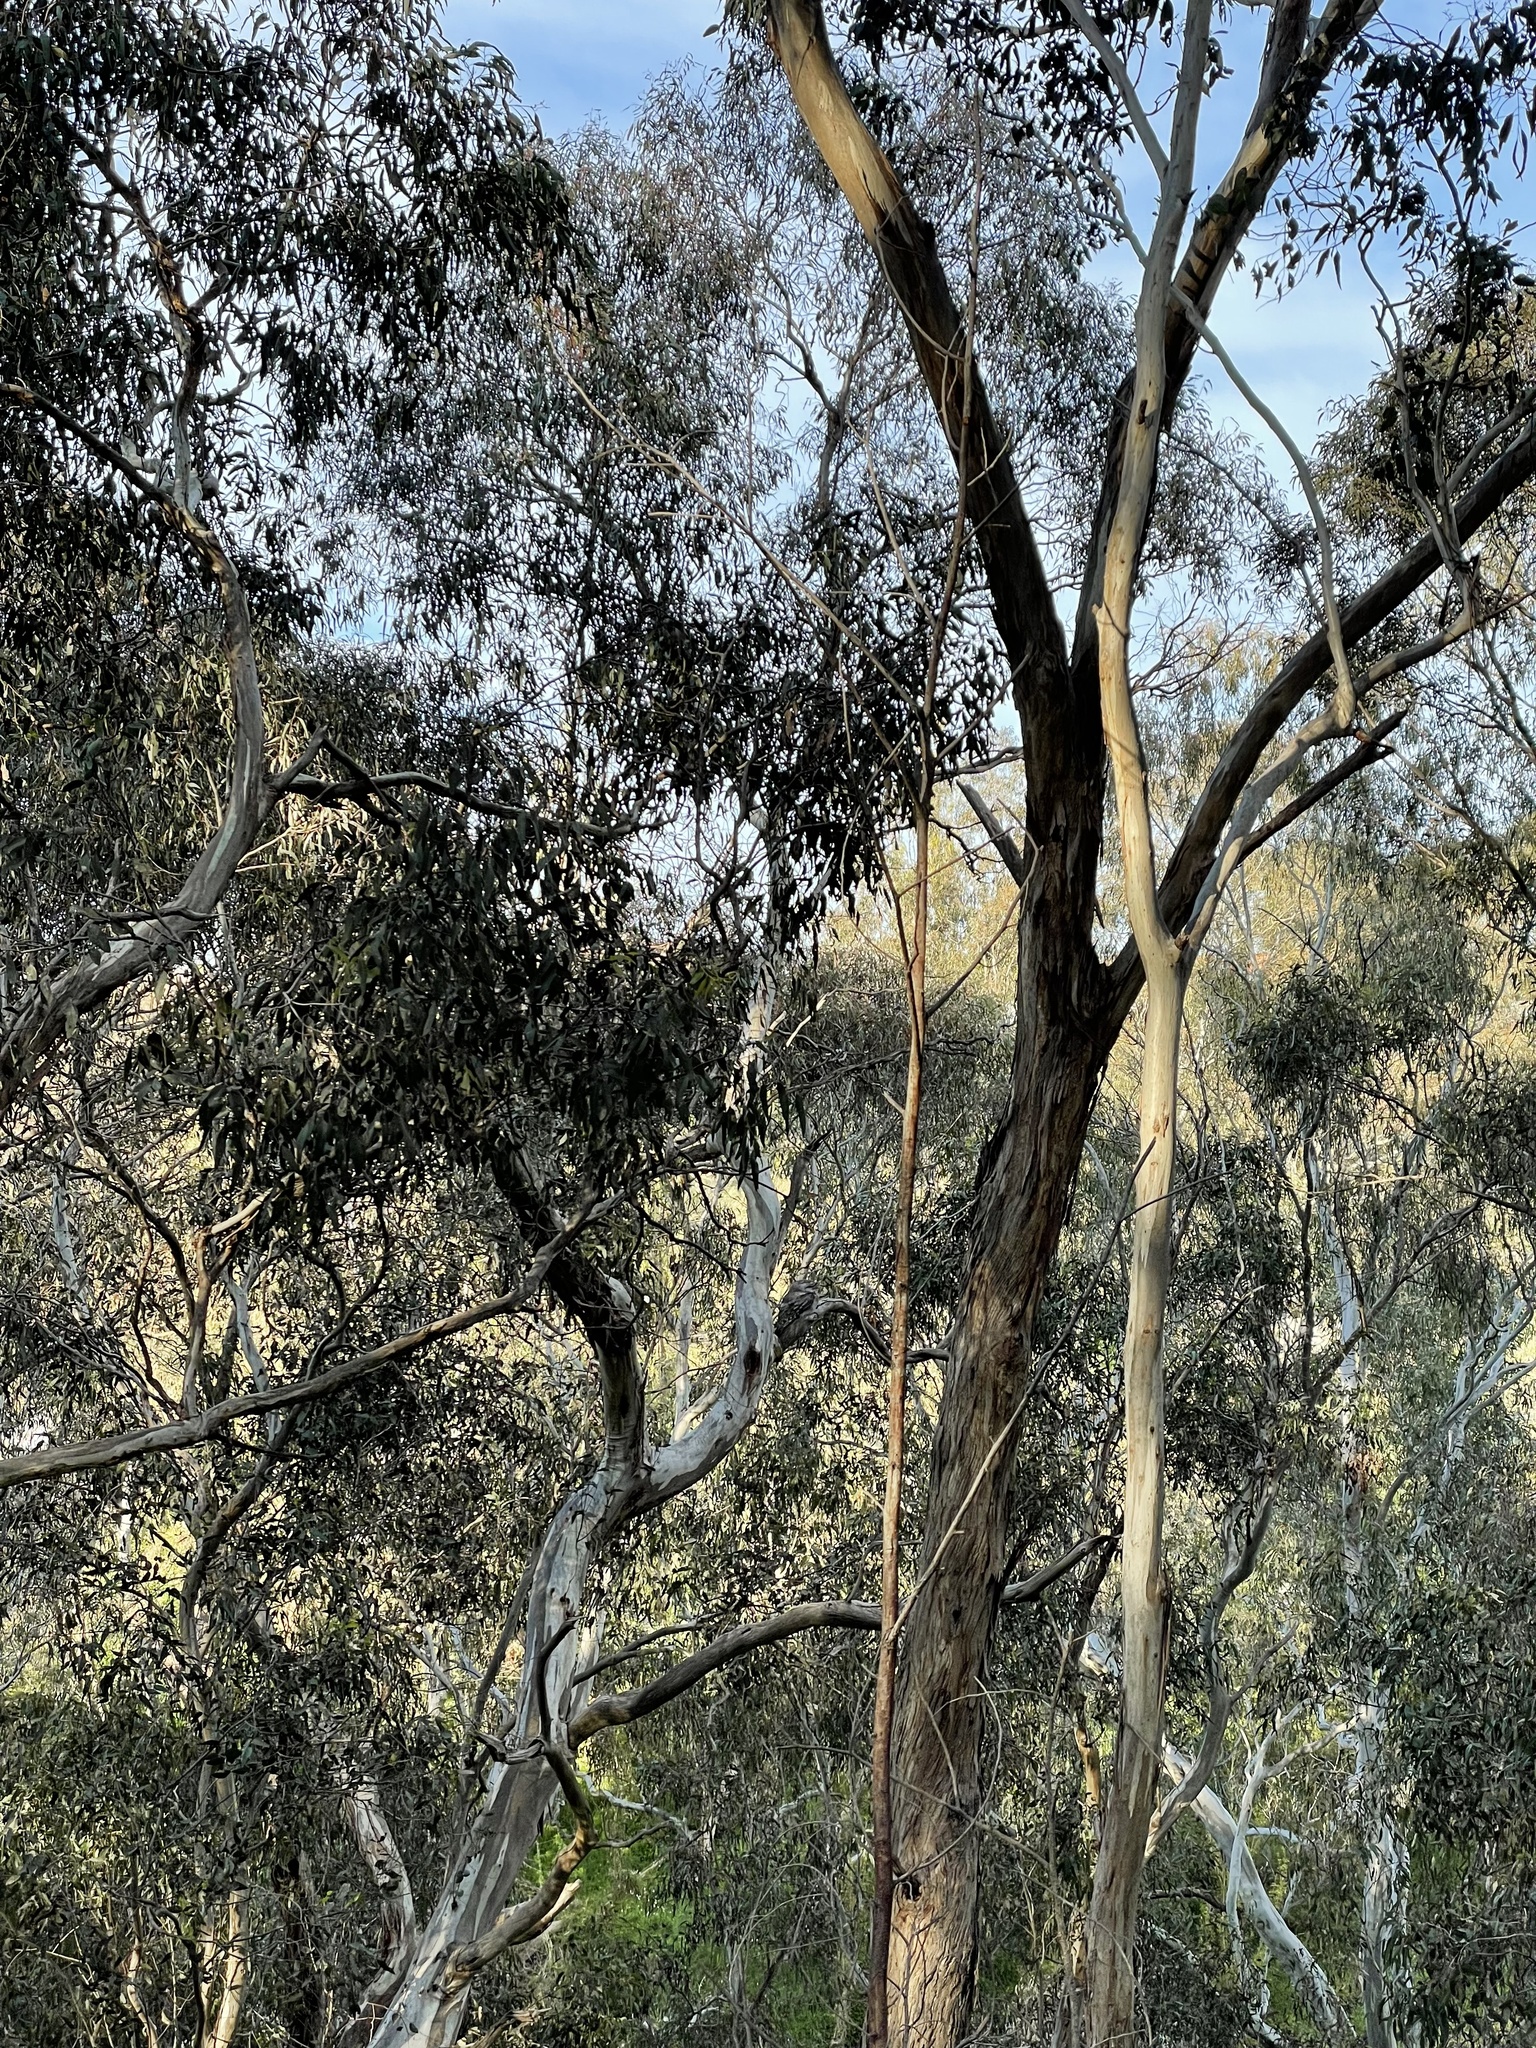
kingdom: Animalia
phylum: Chordata
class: Aves
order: Caprimulgiformes
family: Podargidae
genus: Podargus
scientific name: Podargus strigoides
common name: Tawny frogmouth
